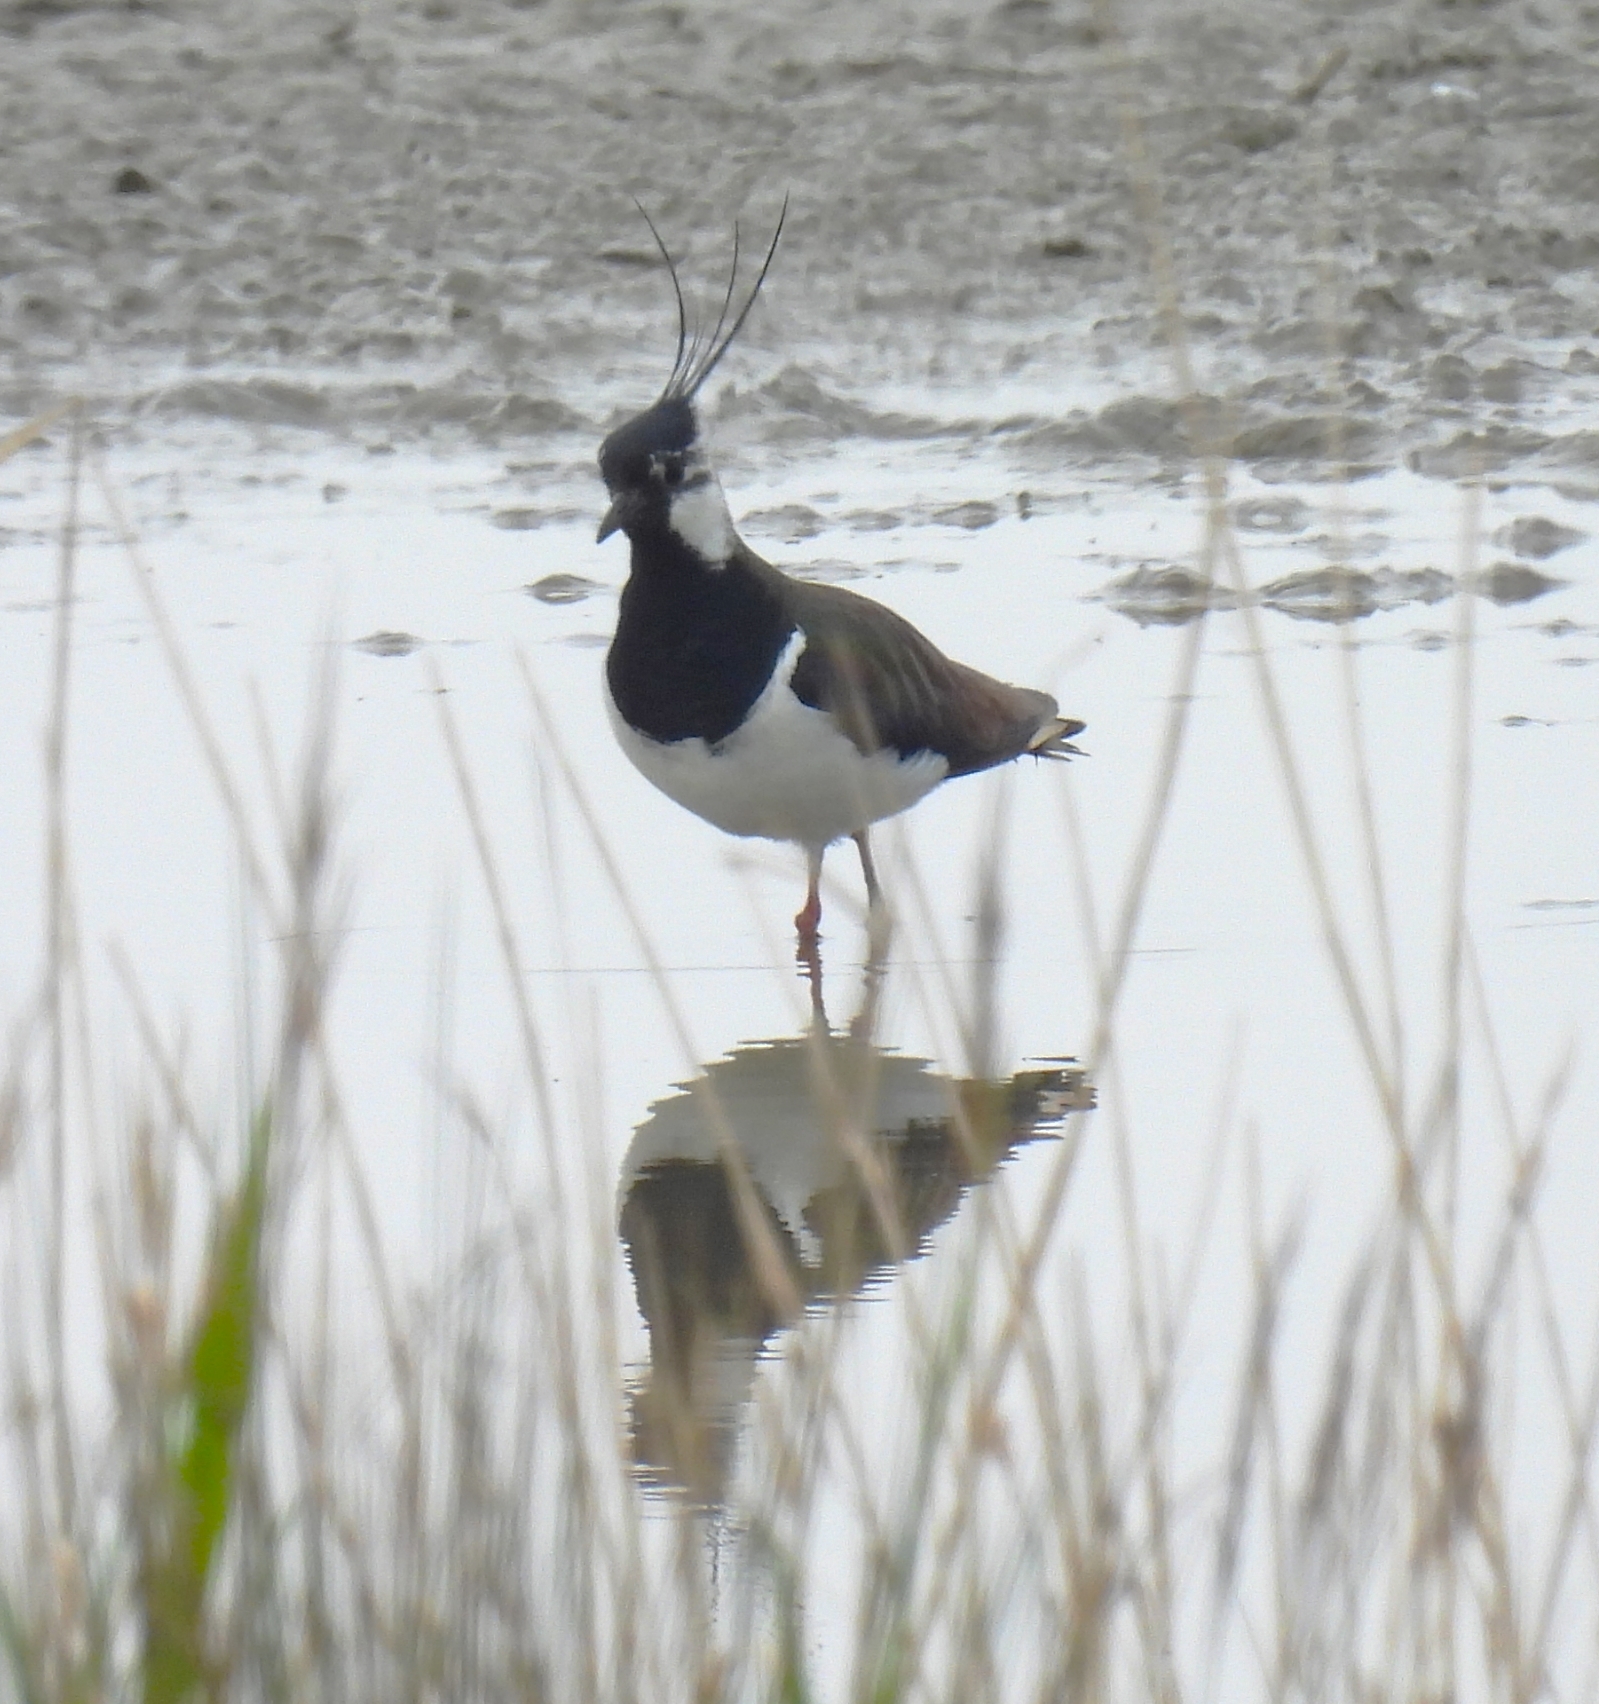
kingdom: Animalia
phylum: Chordata
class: Aves
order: Charadriiformes
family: Charadriidae
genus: Vanellus
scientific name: Vanellus vanellus
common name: Northern lapwing
